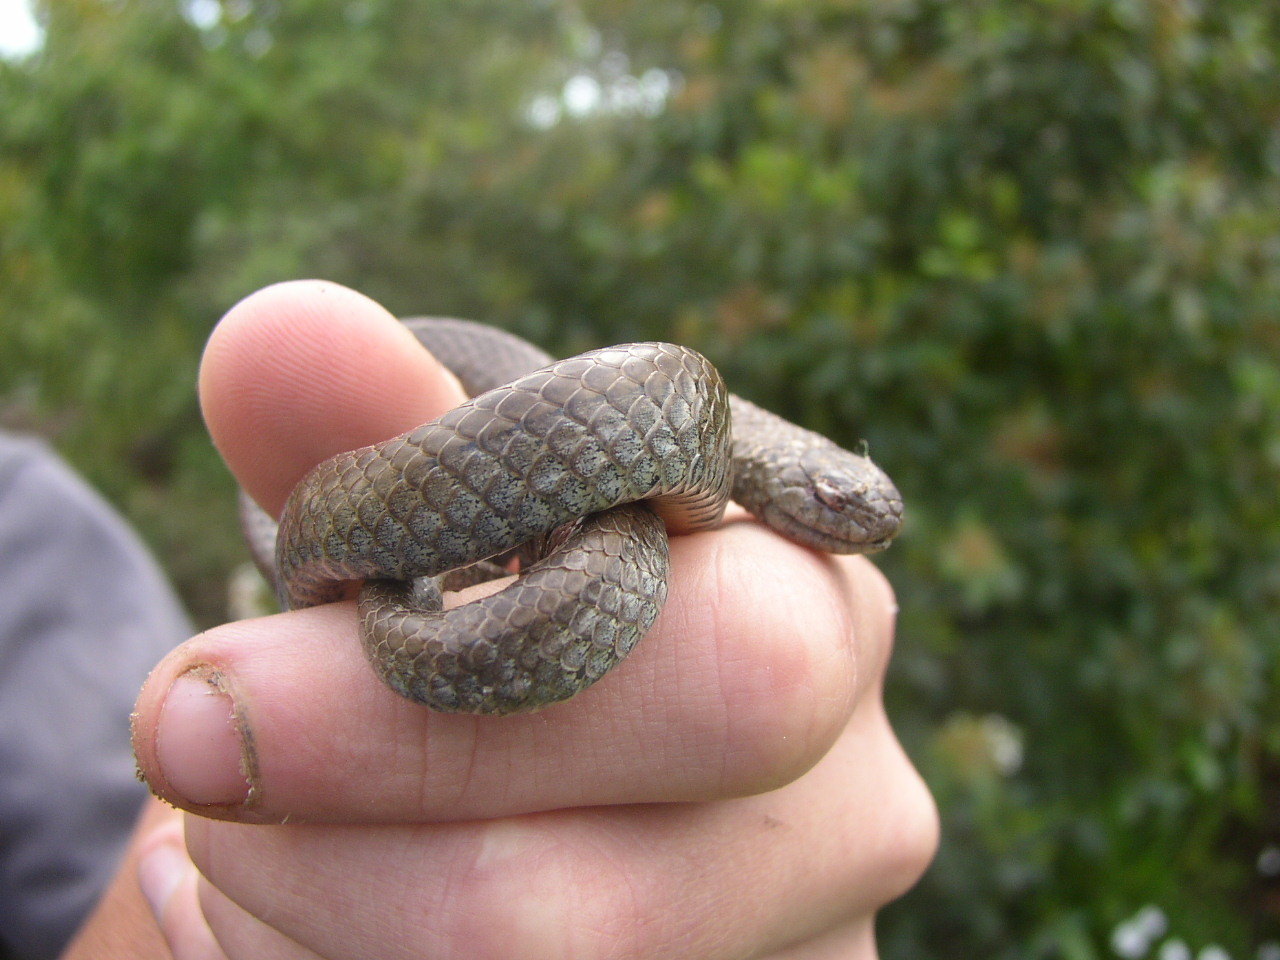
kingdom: Animalia
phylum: Chordata
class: Squamata
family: Pseudoxyrhophiidae
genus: Duberria
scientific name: Duberria lutrix
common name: Common slug eater
